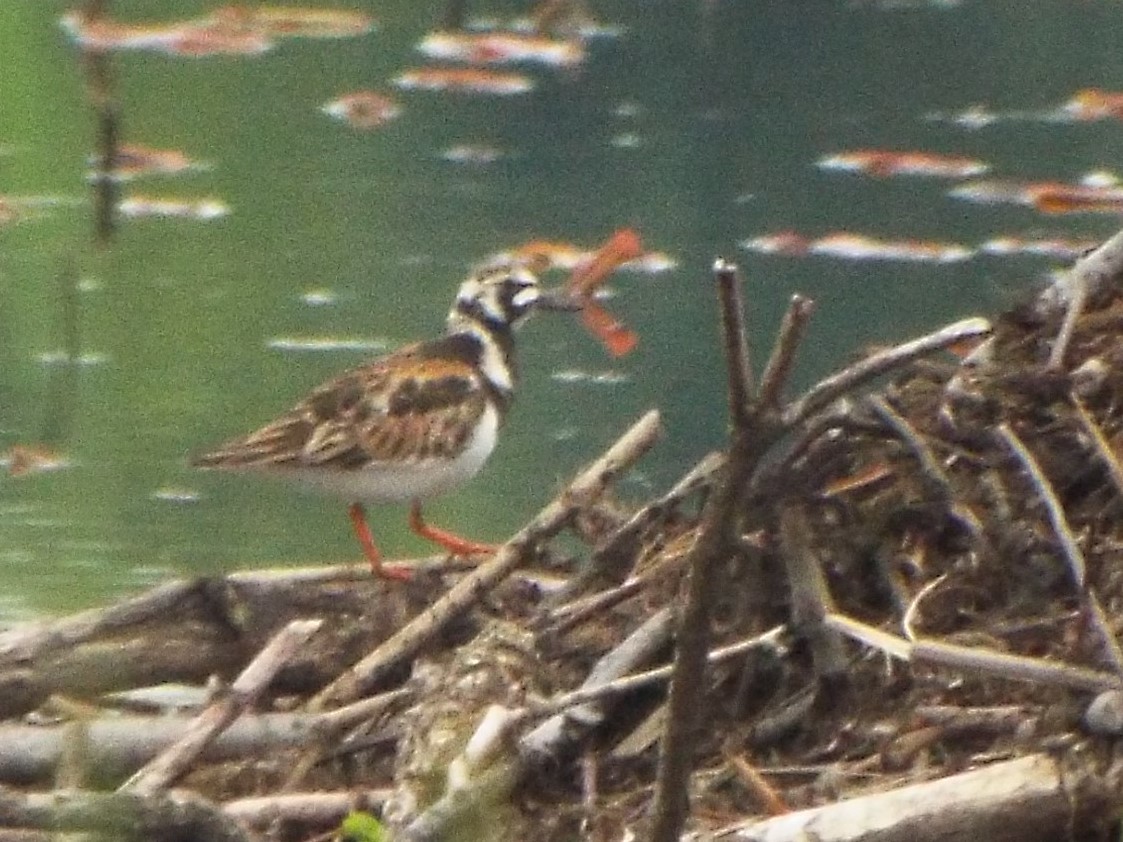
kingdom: Animalia
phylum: Chordata
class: Aves
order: Charadriiformes
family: Scolopacidae
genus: Arenaria
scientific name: Arenaria interpres
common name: Ruddy turnstone
